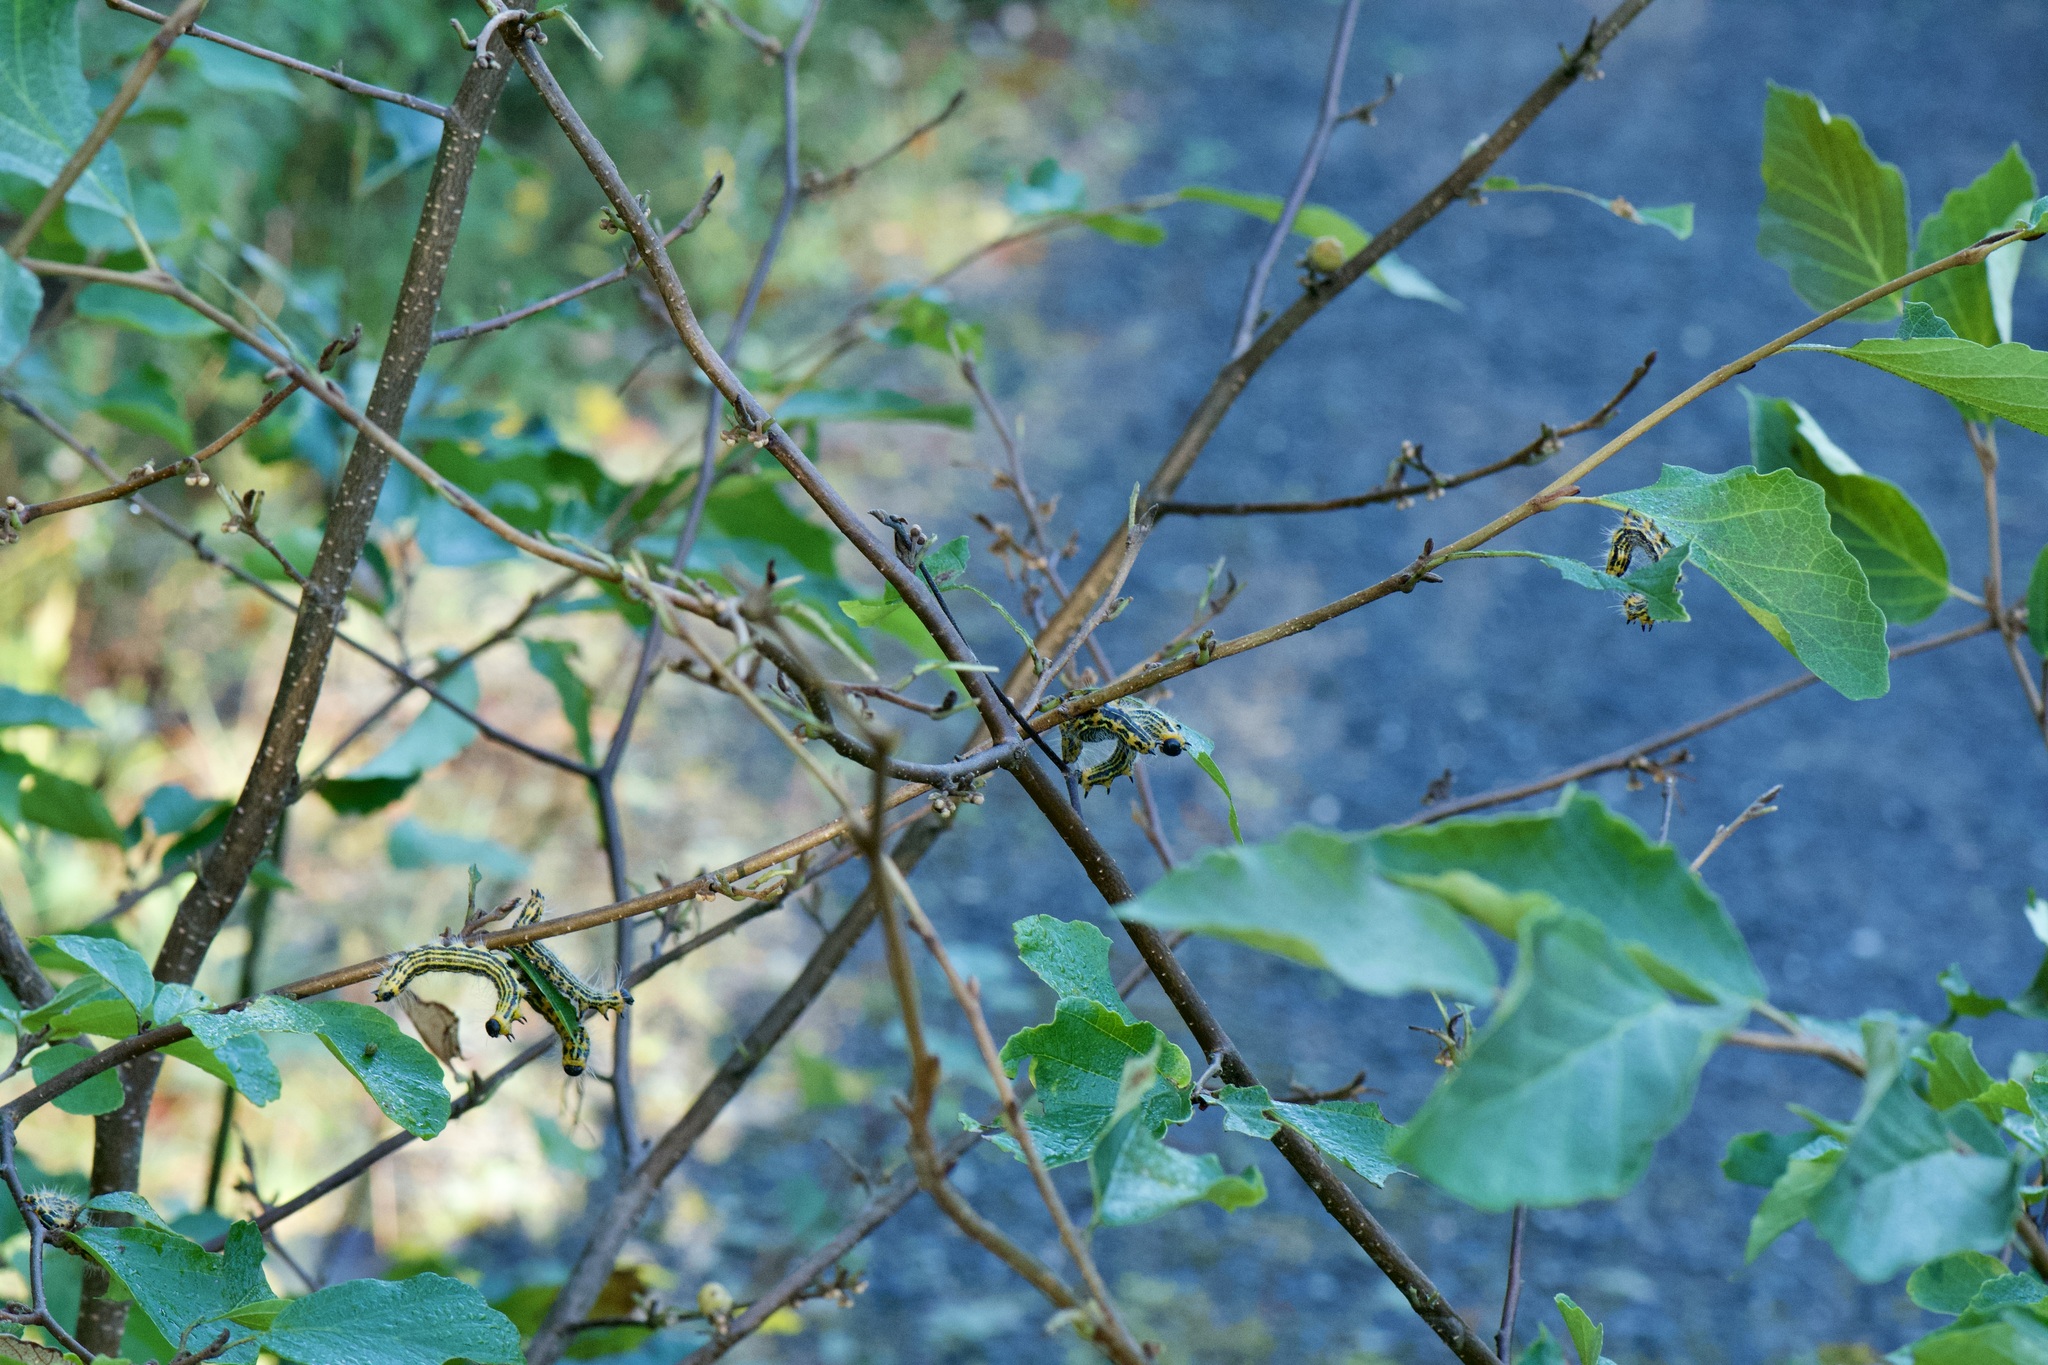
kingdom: Animalia
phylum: Arthropoda
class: Insecta
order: Lepidoptera
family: Notodontidae
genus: Datana
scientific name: Datana drexelii
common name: Drexel's datana
